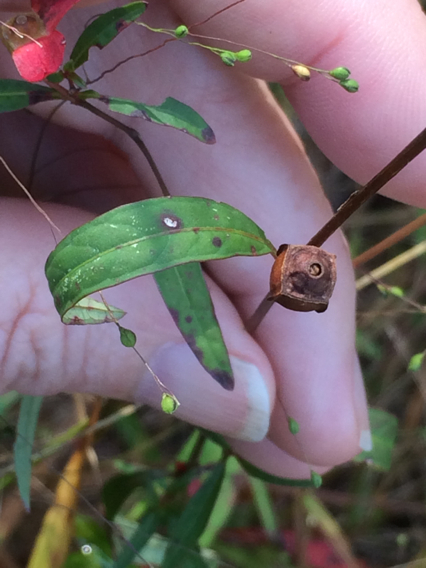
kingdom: Plantae
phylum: Tracheophyta
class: Magnoliopsida
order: Myrtales
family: Onagraceae
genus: Ludwigia
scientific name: Ludwigia alternifolia
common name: Rattlebox
